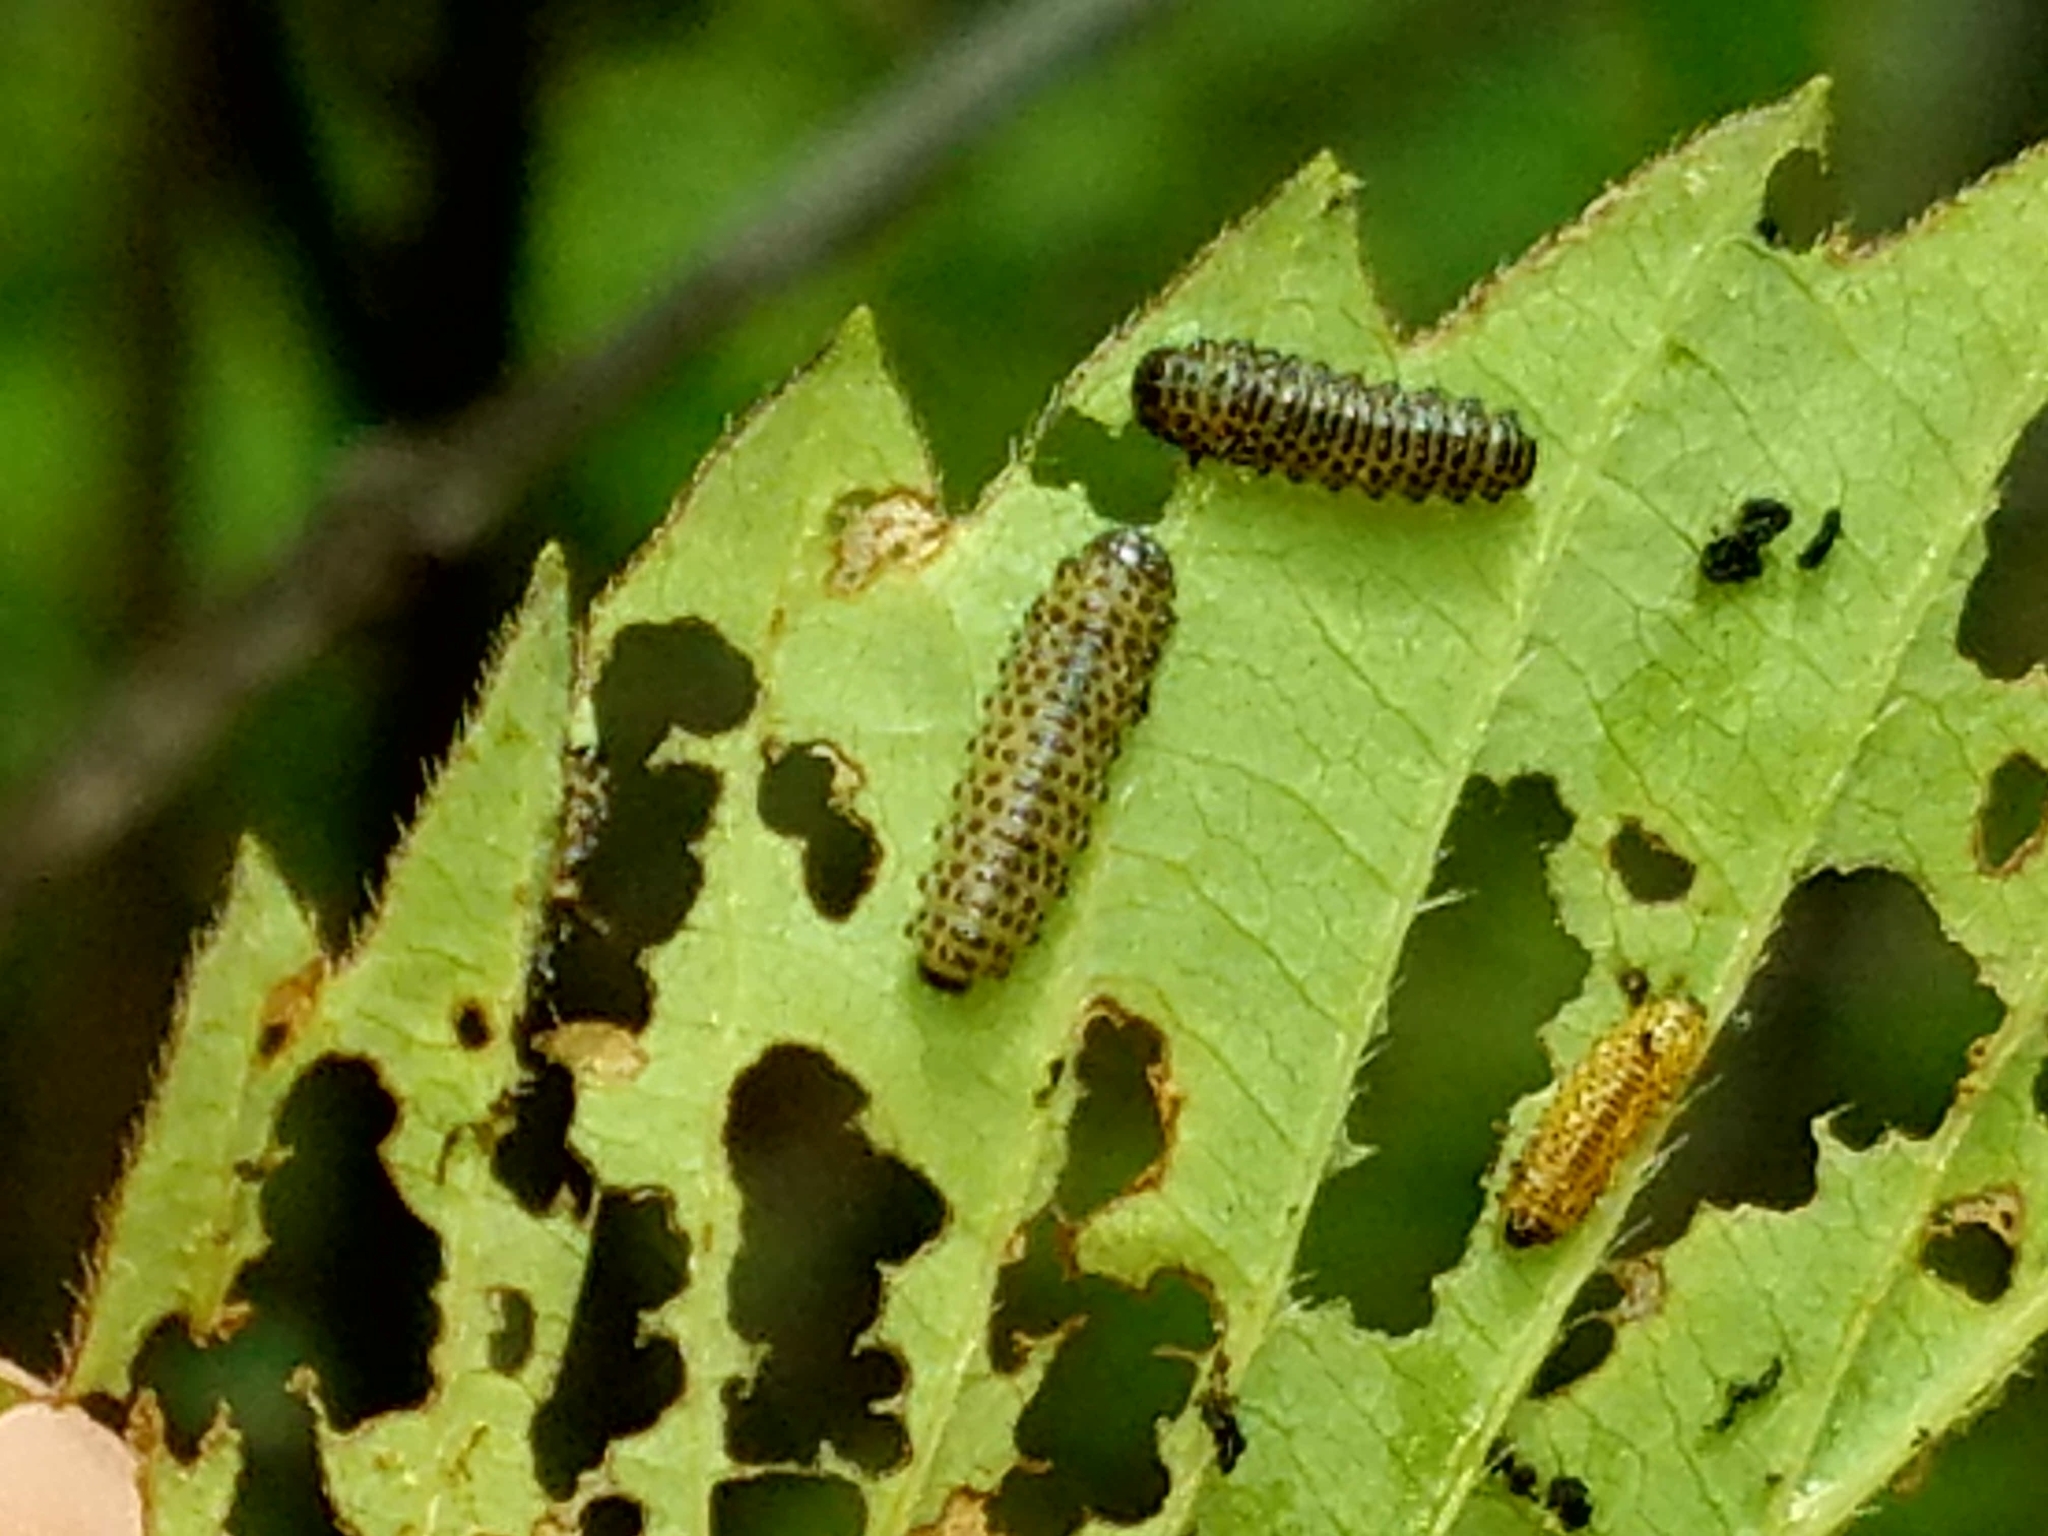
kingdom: Animalia
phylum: Arthropoda
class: Insecta
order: Coleoptera
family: Chrysomelidae
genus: Pyrrhalta
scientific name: Pyrrhalta viburni
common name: Guelder-rose leaf beetle
